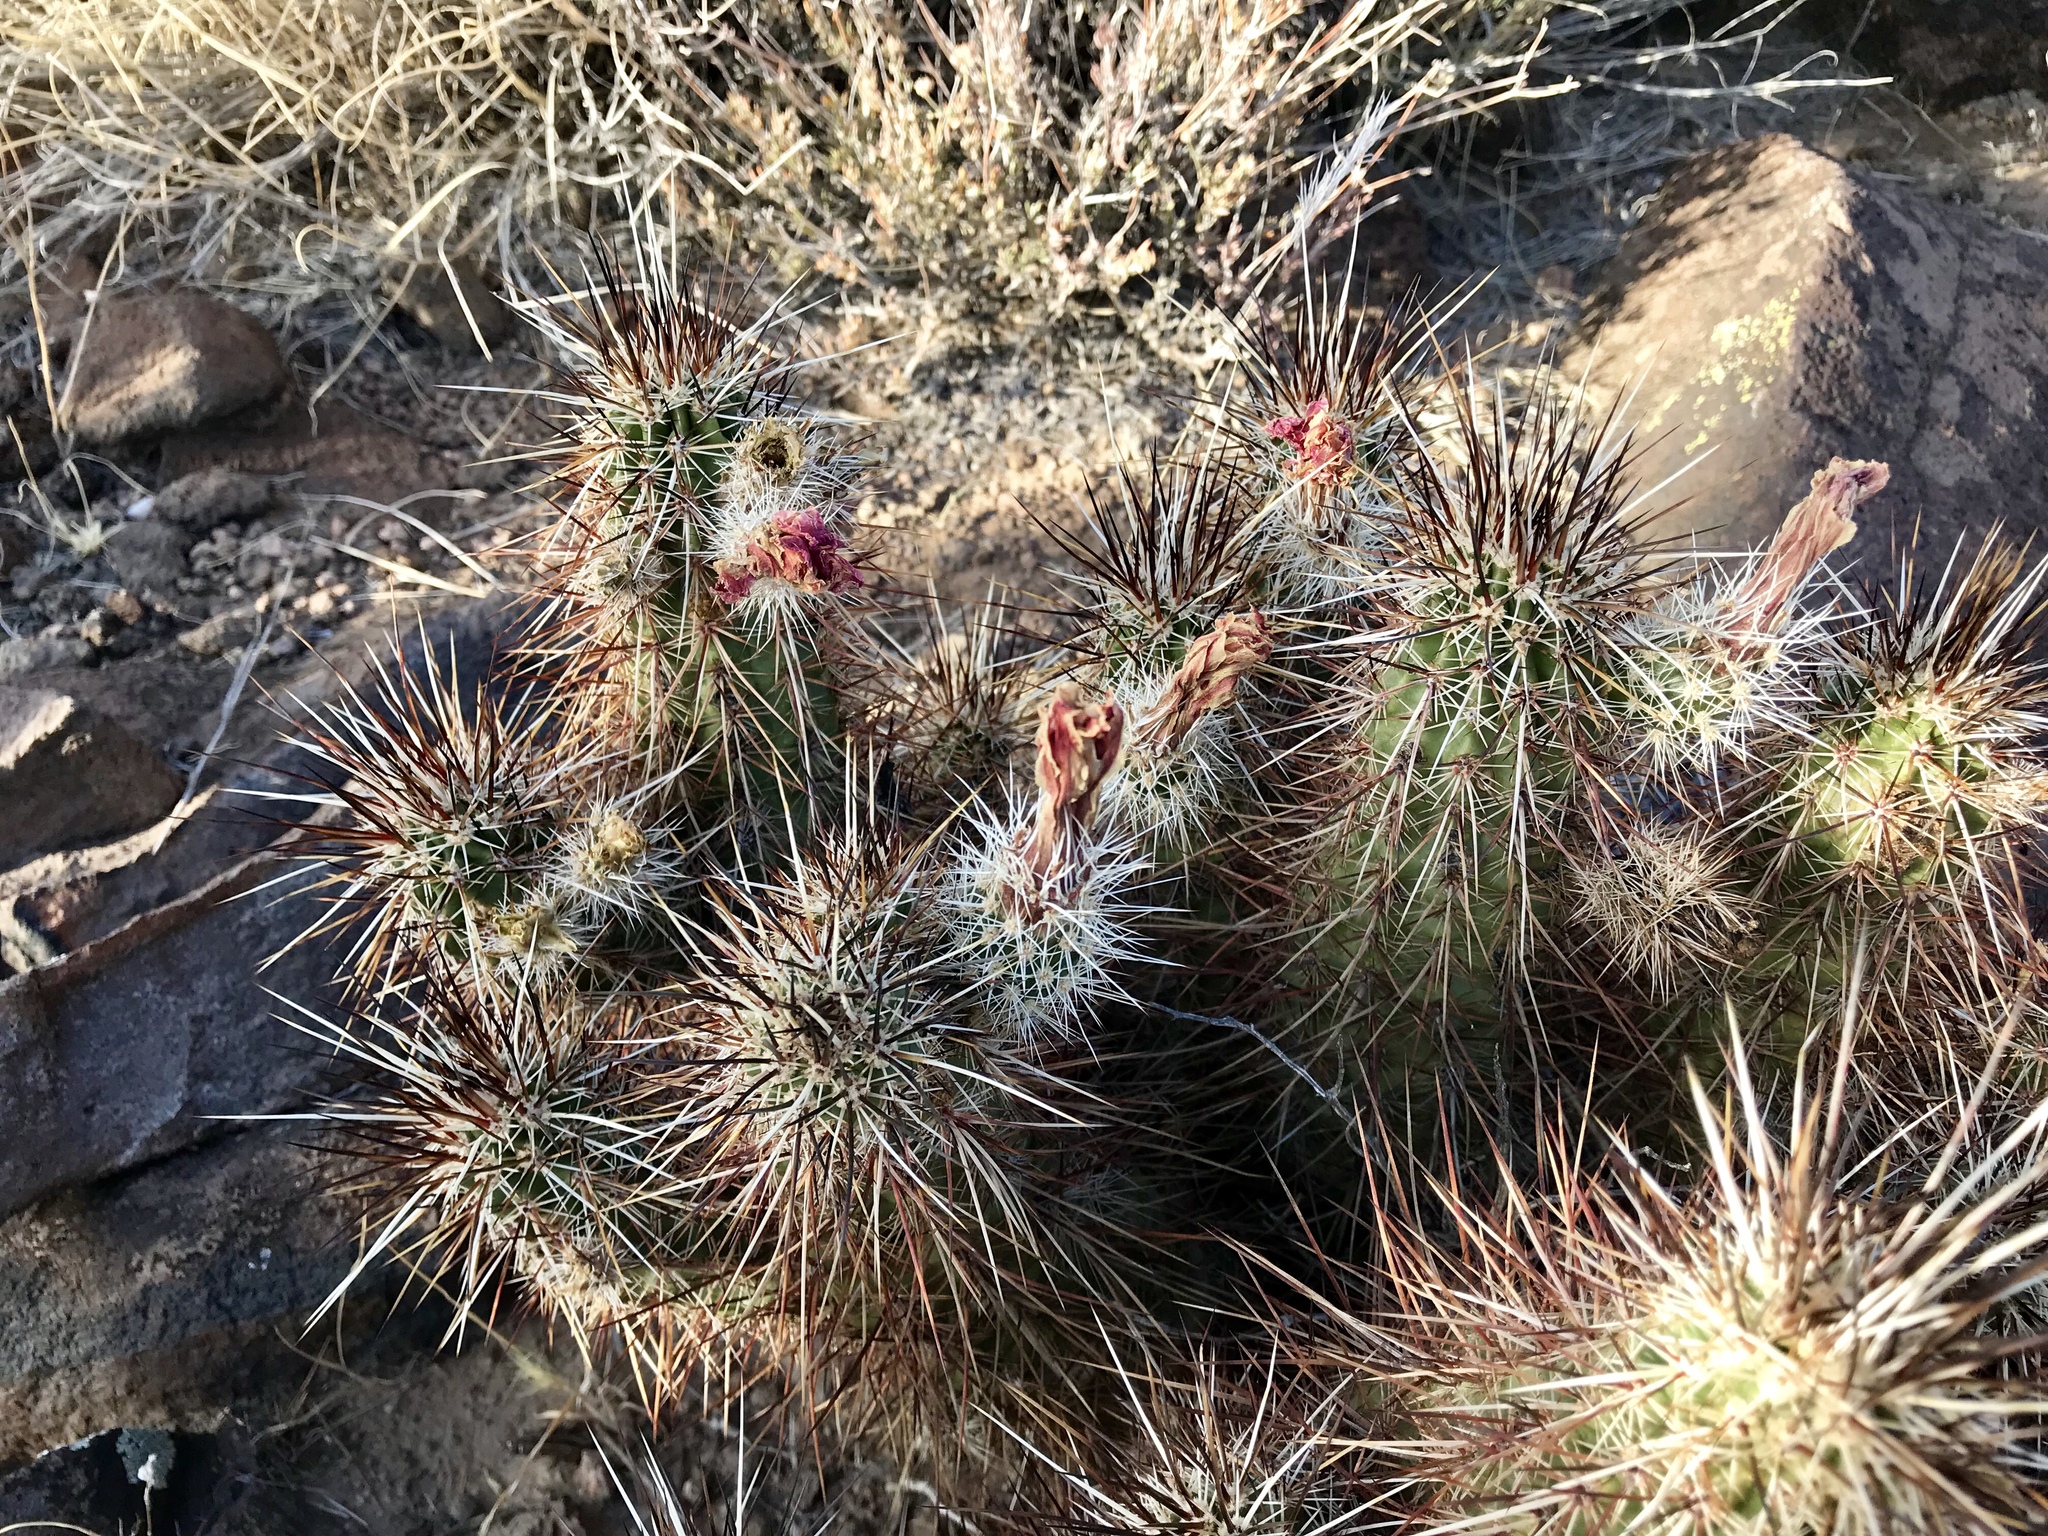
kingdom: Plantae
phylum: Tracheophyta
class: Magnoliopsida
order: Caryophyllales
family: Cactaceae
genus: Echinocereus
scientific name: Echinocereus engelmannii
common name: Engelmann's hedgehog cactus
